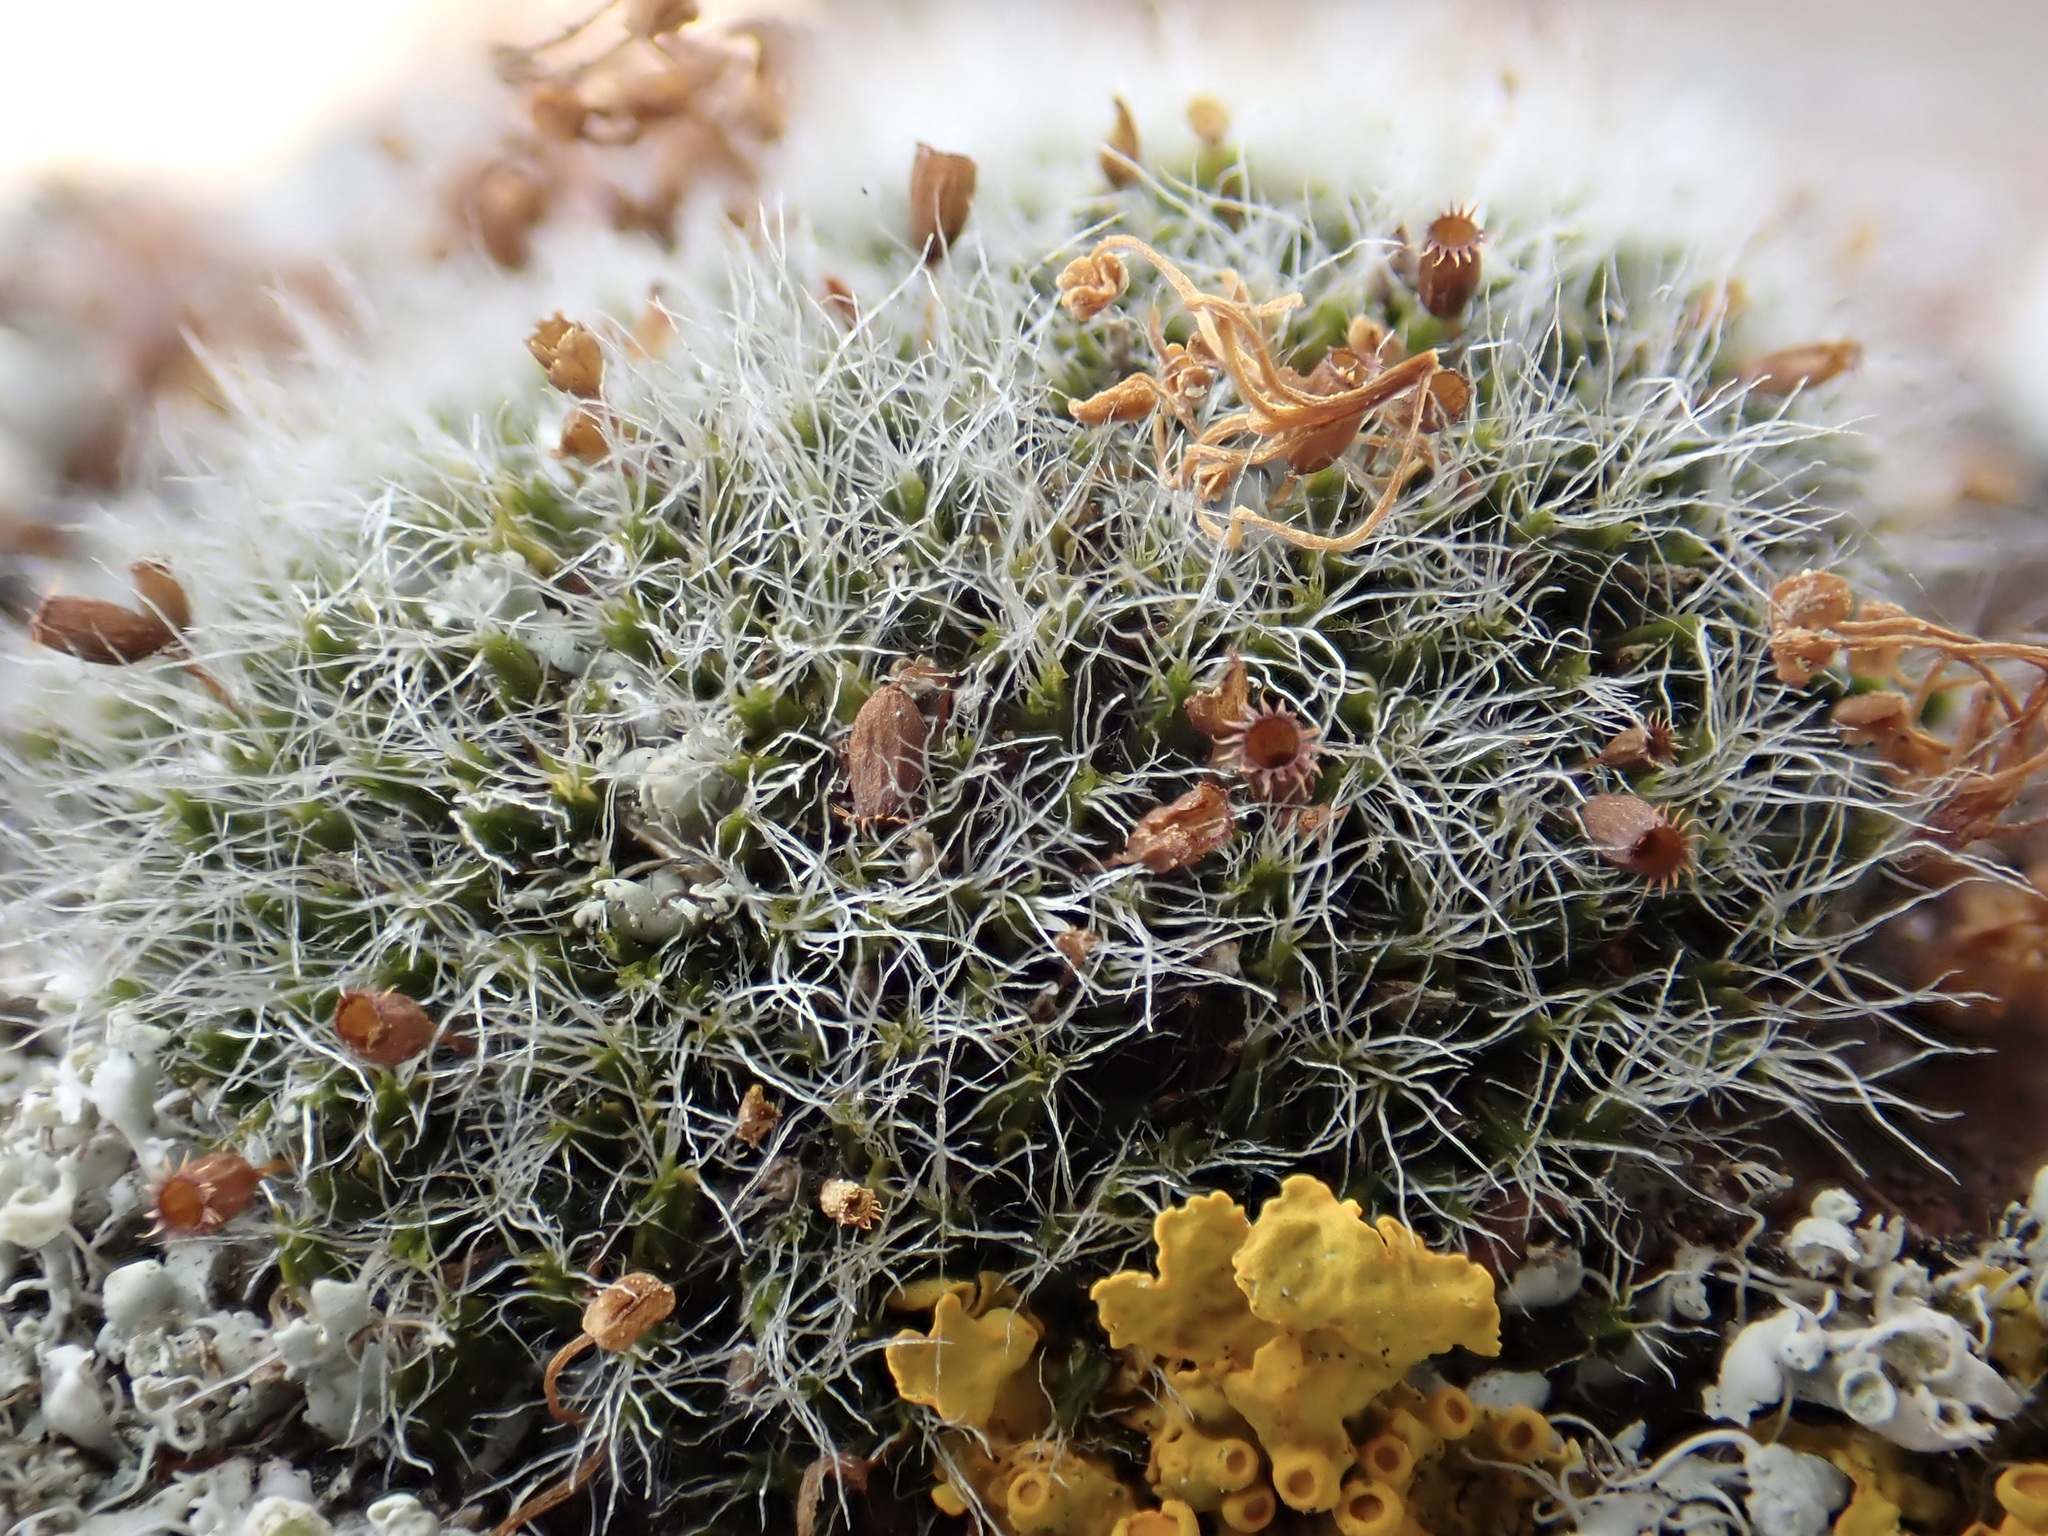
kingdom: Plantae
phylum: Bryophyta
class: Bryopsida
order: Grimmiales
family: Grimmiaceae
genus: Grimmia
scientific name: Grimmia pulvinata
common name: Grey-cushioned grimmia
